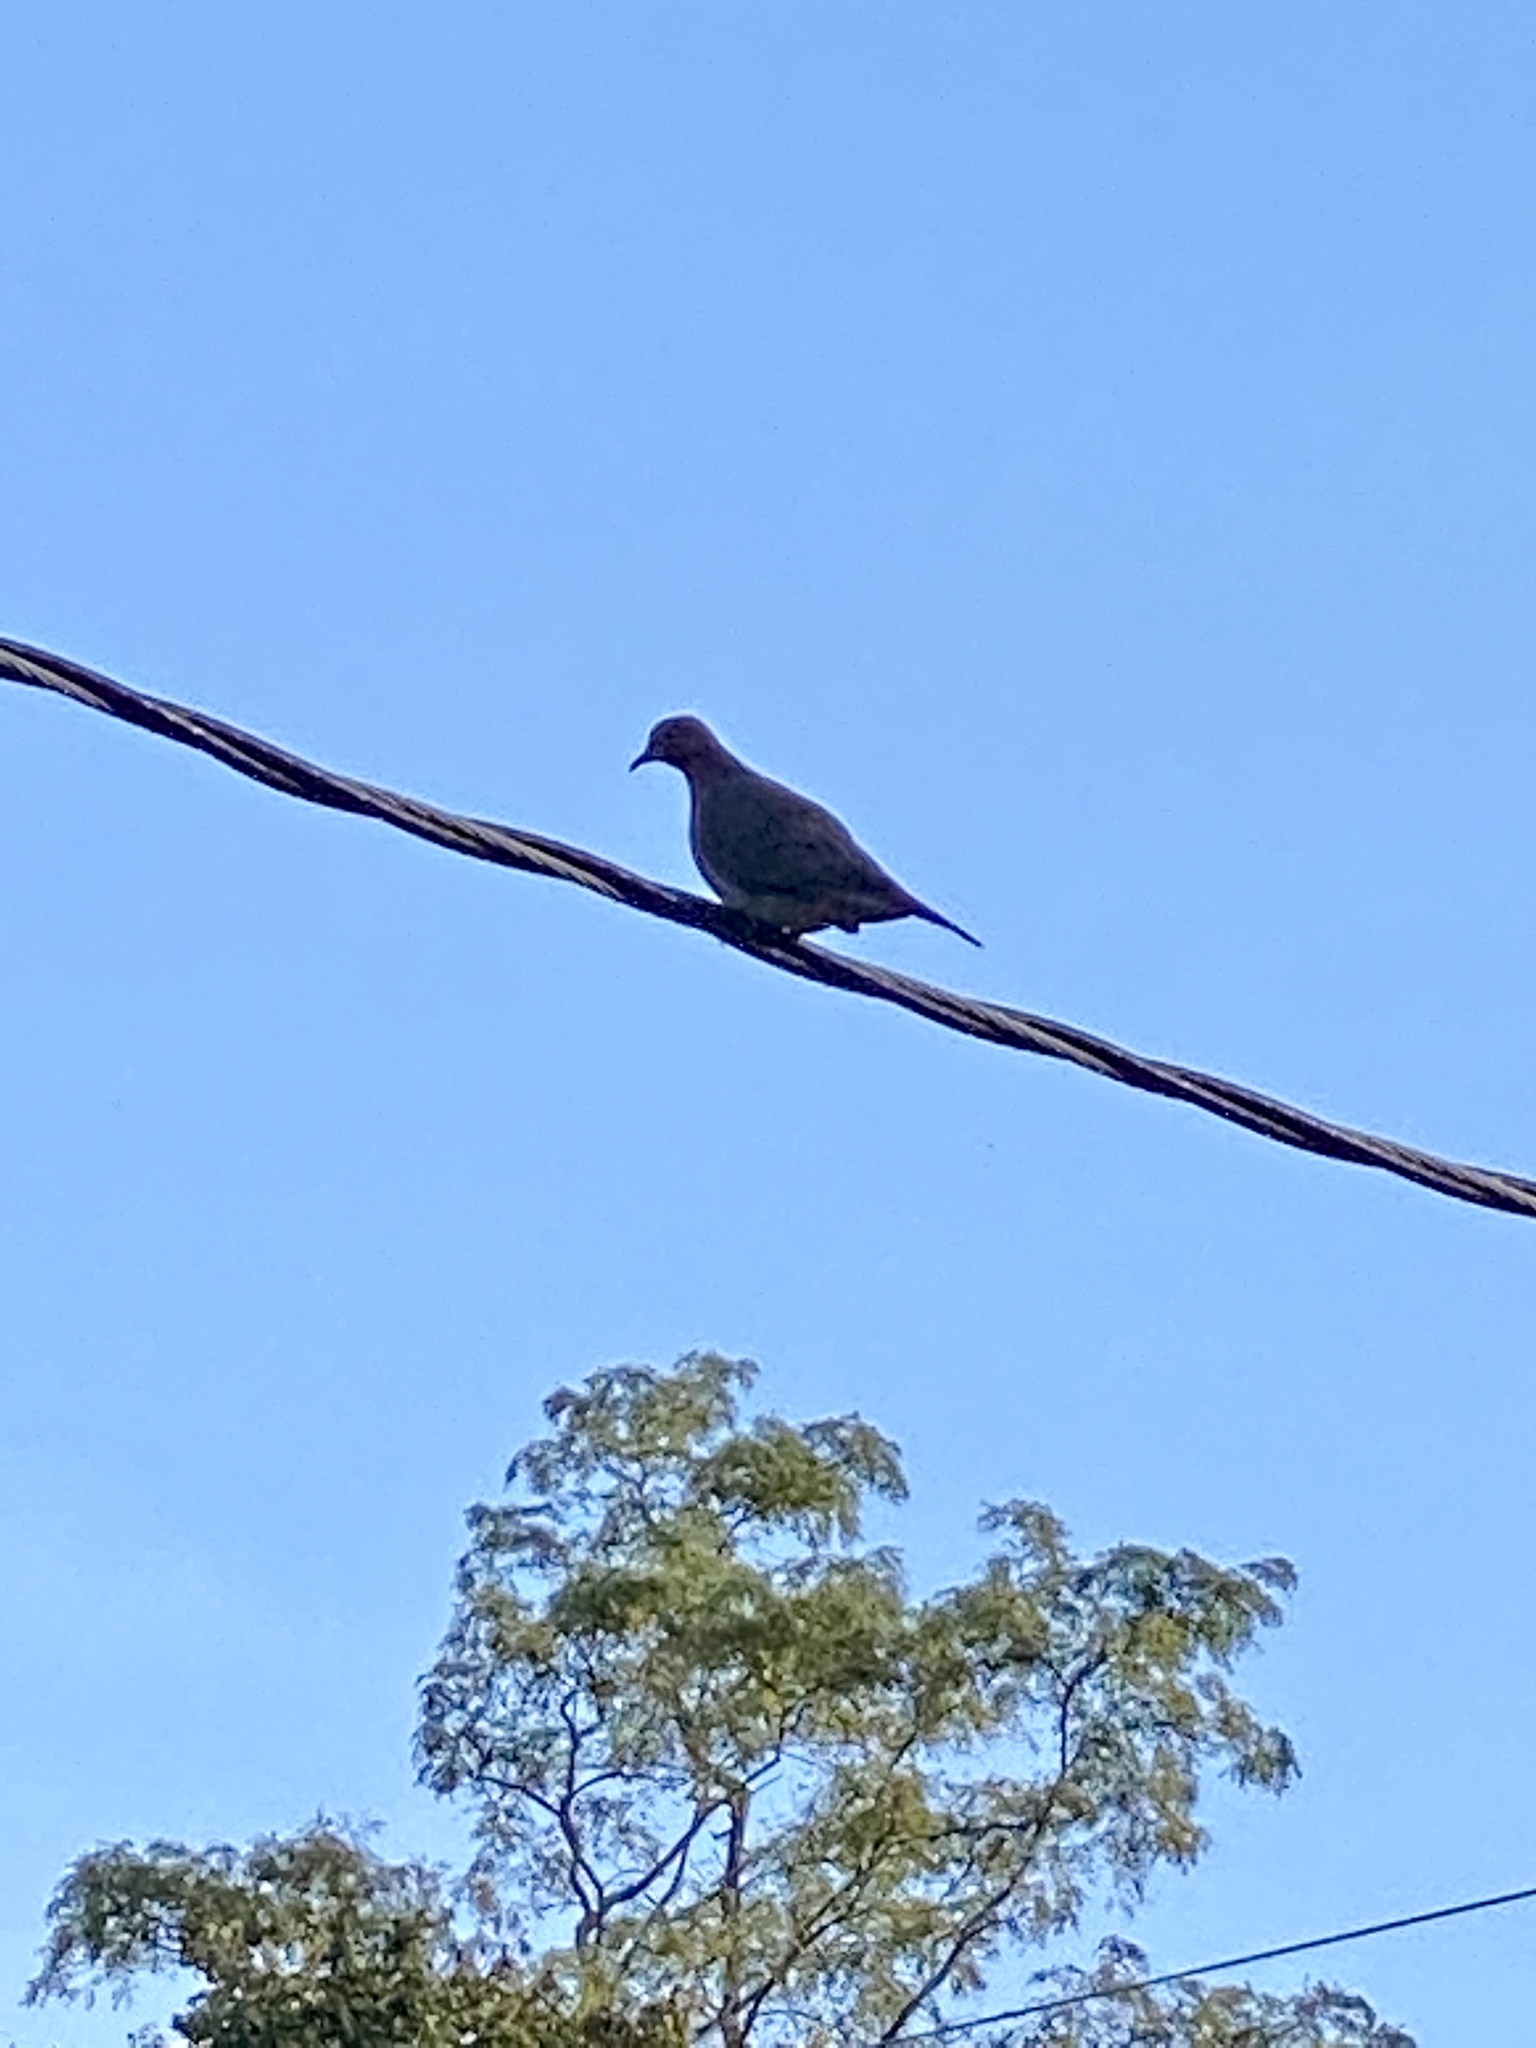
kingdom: Animalia
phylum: Chordata
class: Aves
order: Columbiformes
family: Columbidae
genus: Zenaida
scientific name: Zenaida macroura
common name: Mourning dove
